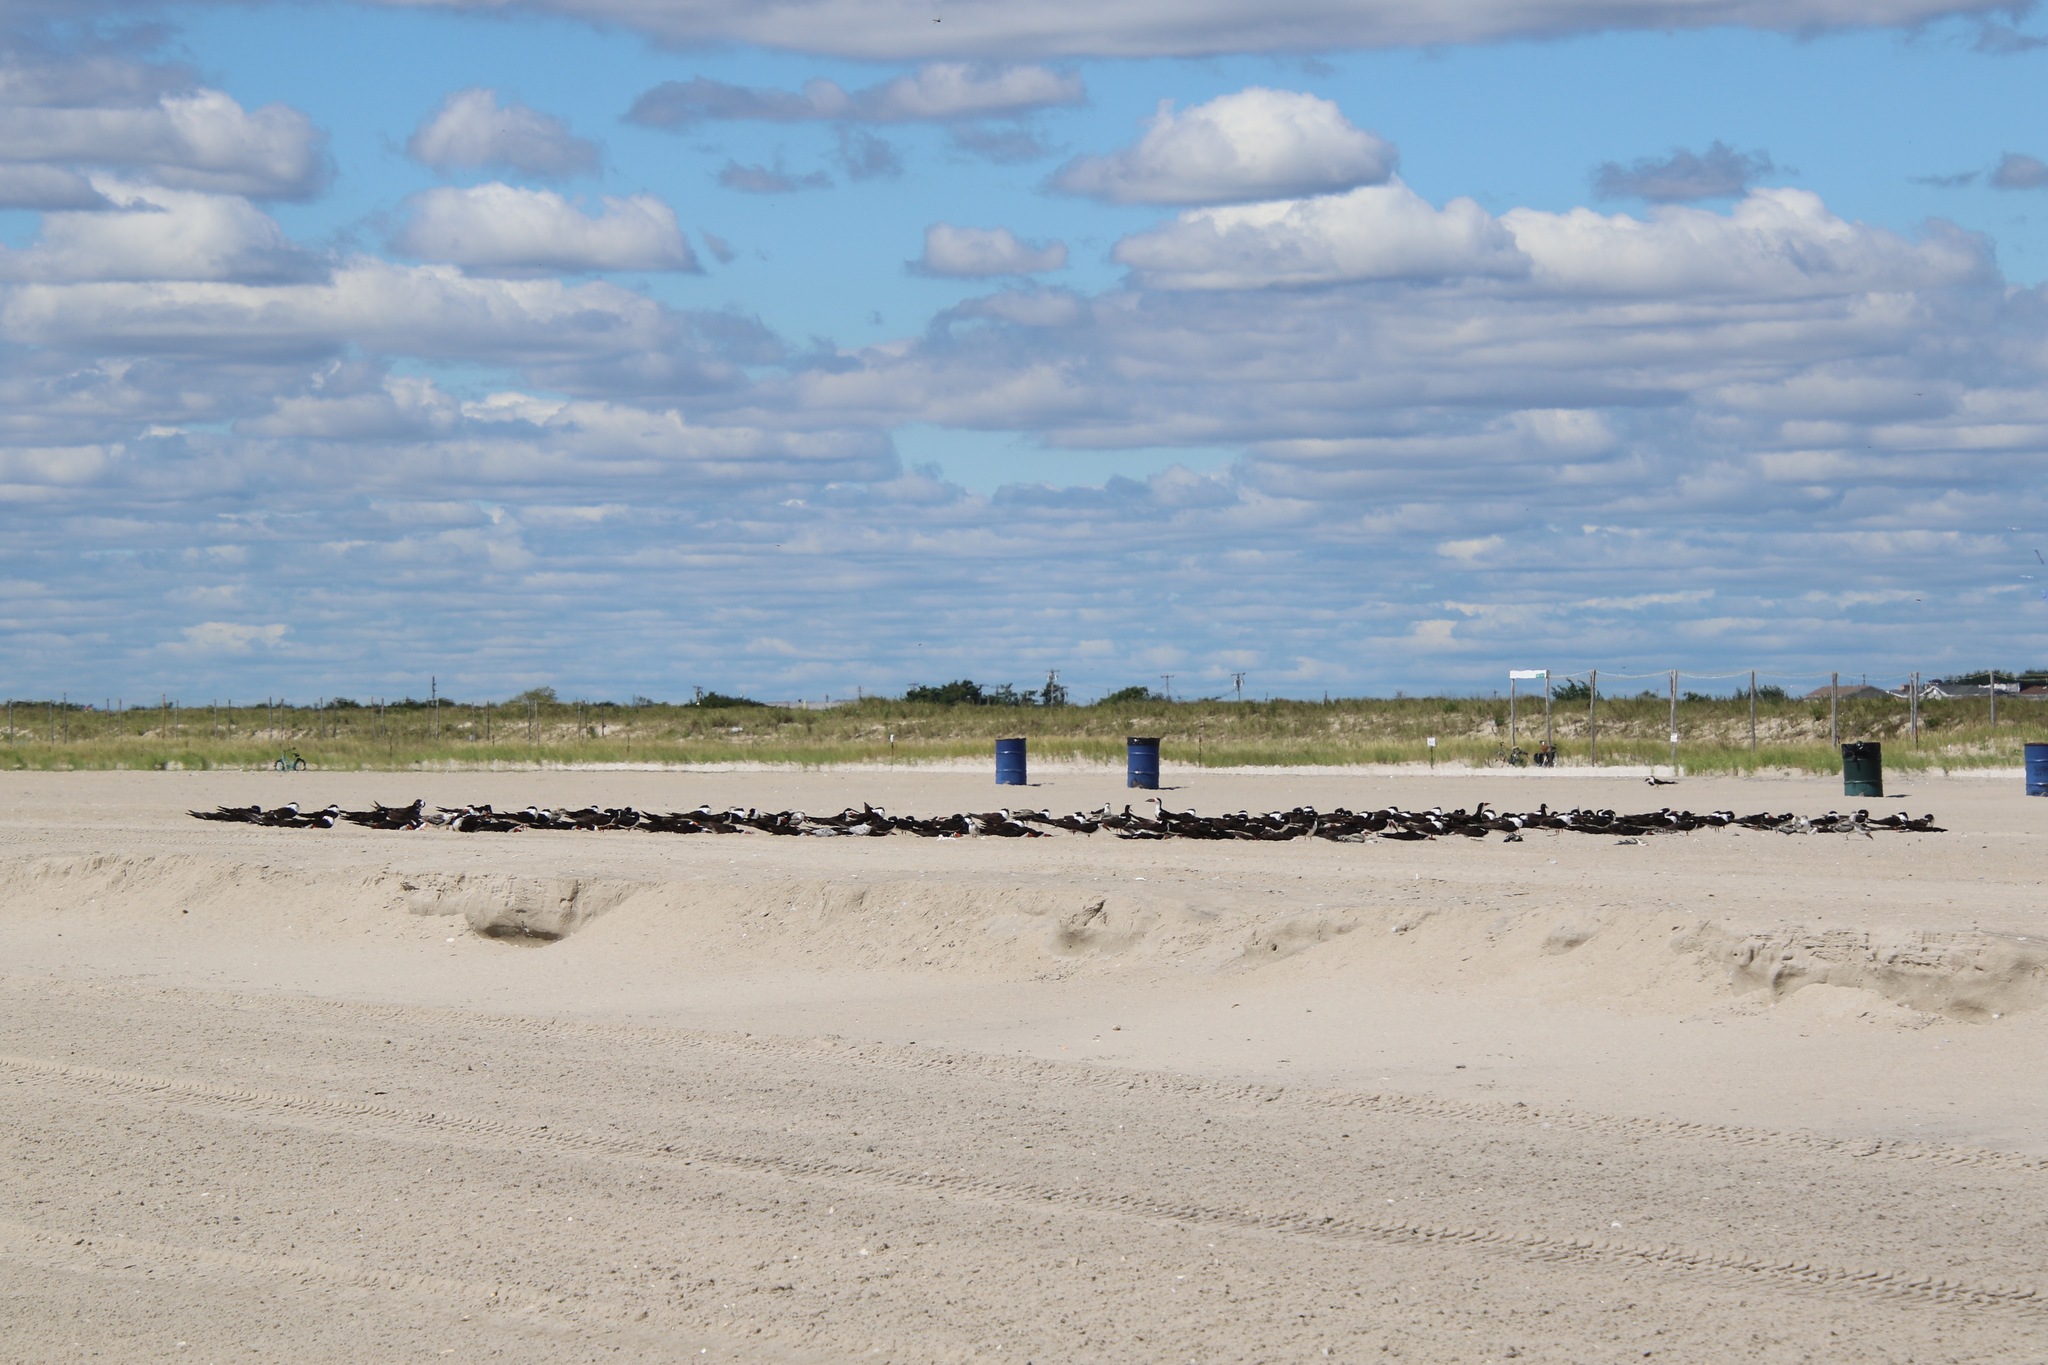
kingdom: Animalia
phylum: Chordata
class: Aves
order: Charadriiformes
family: Laridae
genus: Rynchops
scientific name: Rynchops niger
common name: Black skimmer
